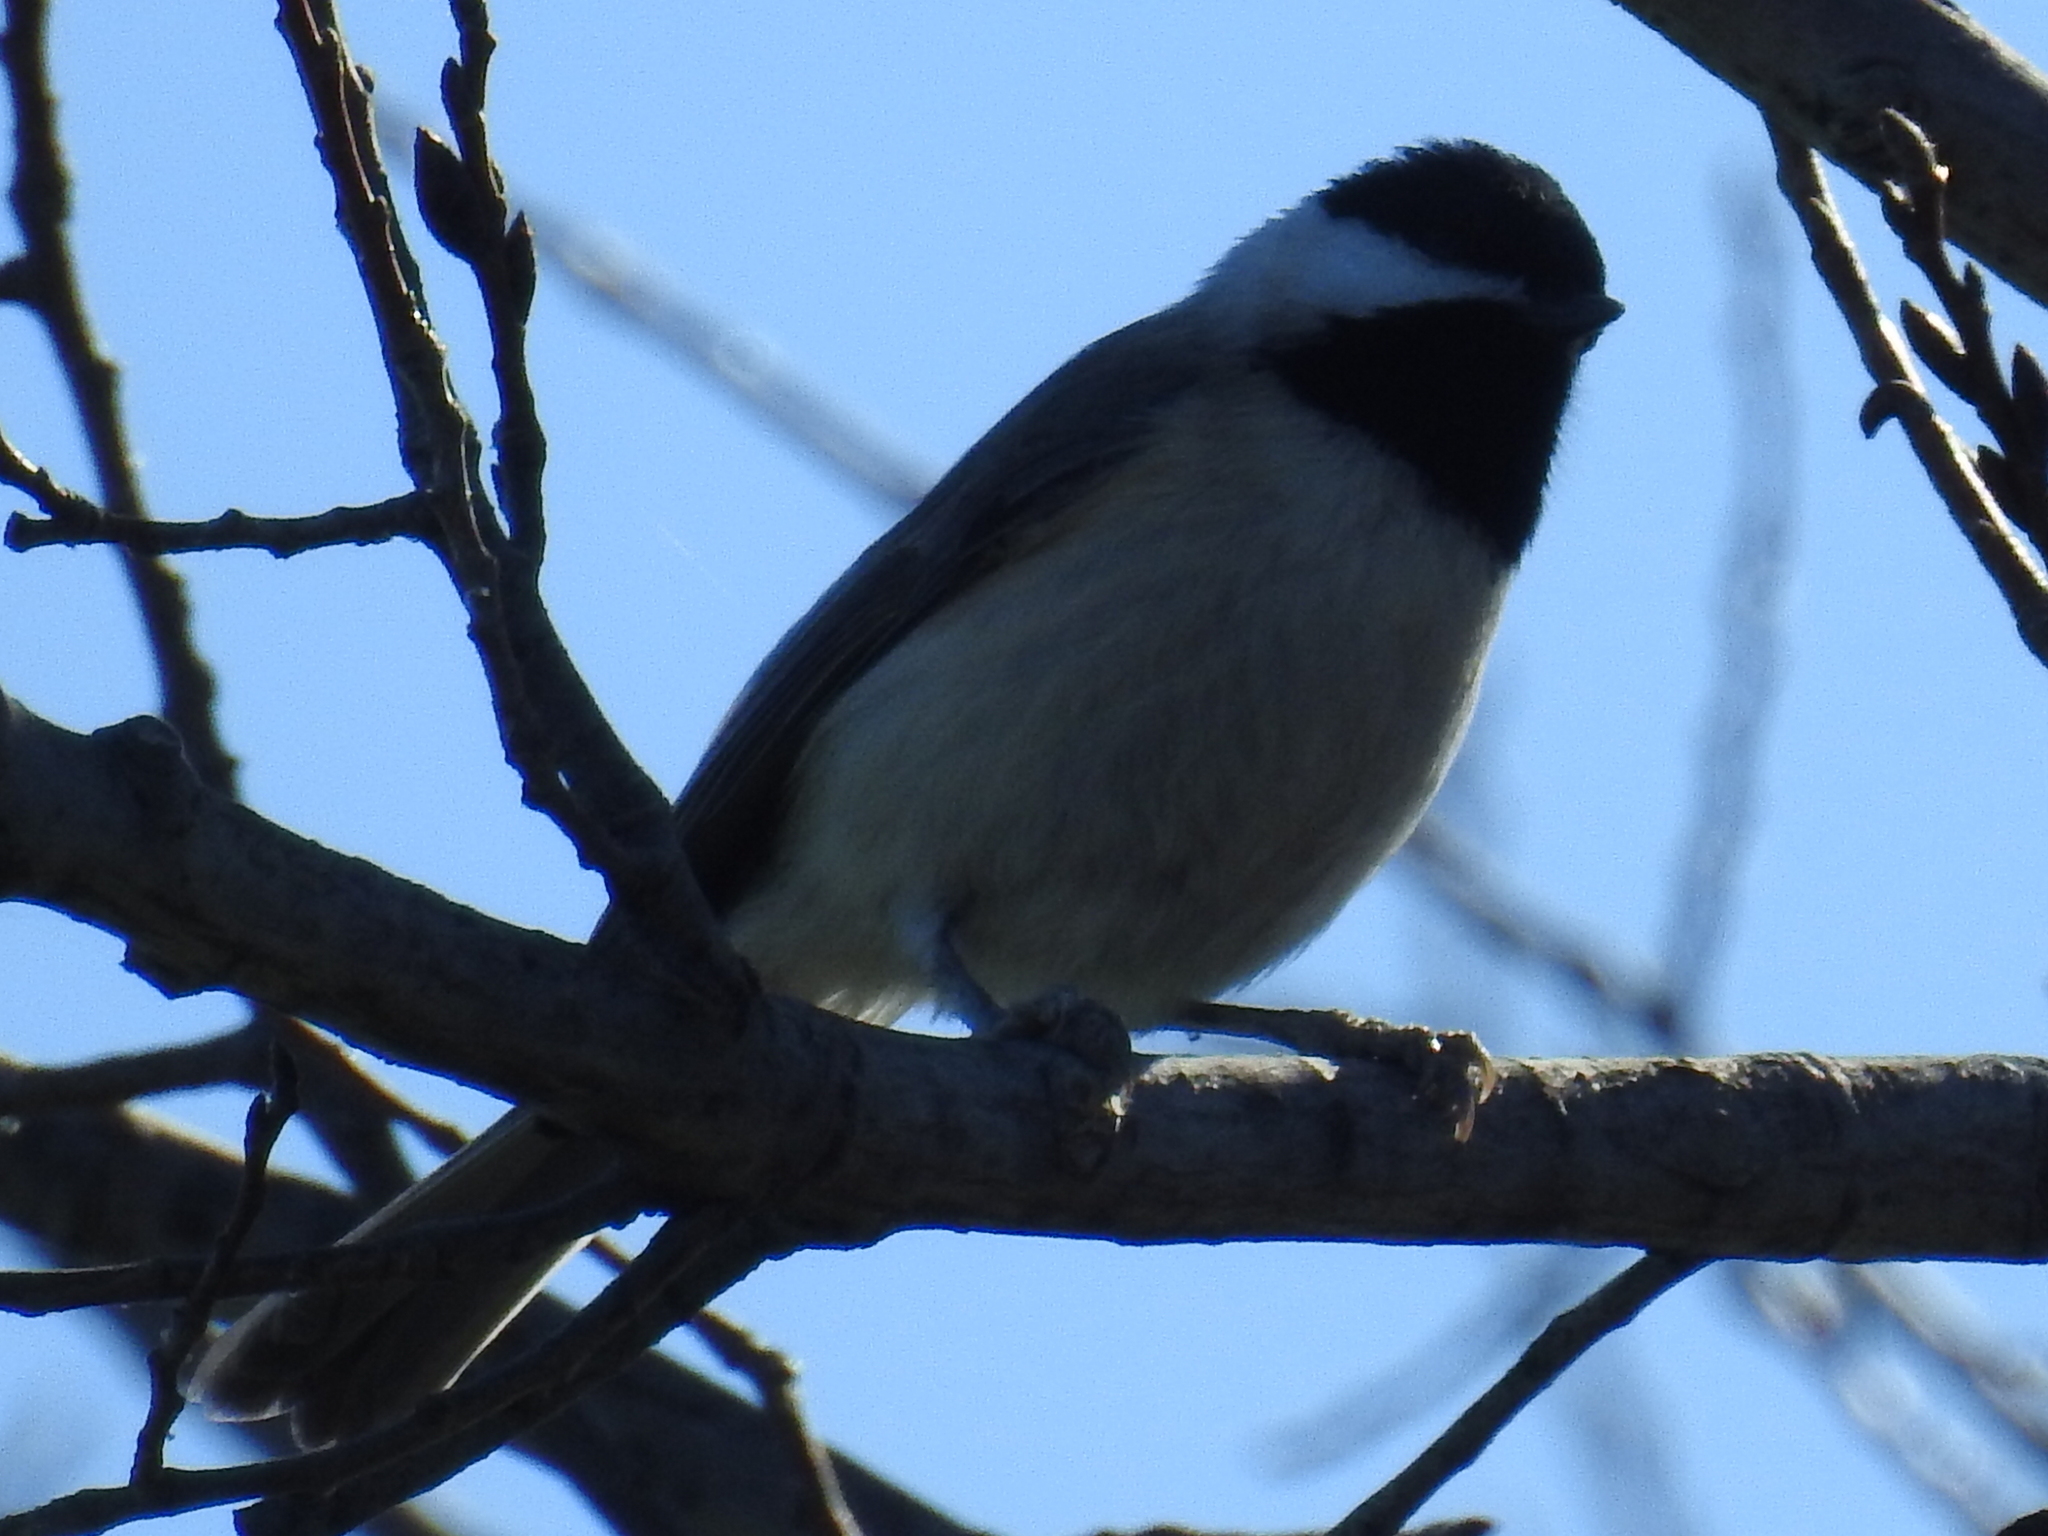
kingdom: Animalia
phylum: Chordata
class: Aves
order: Passeriformes
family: Paridae
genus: Poecile
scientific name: Poecile carolinensis
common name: Carolina chickadee
